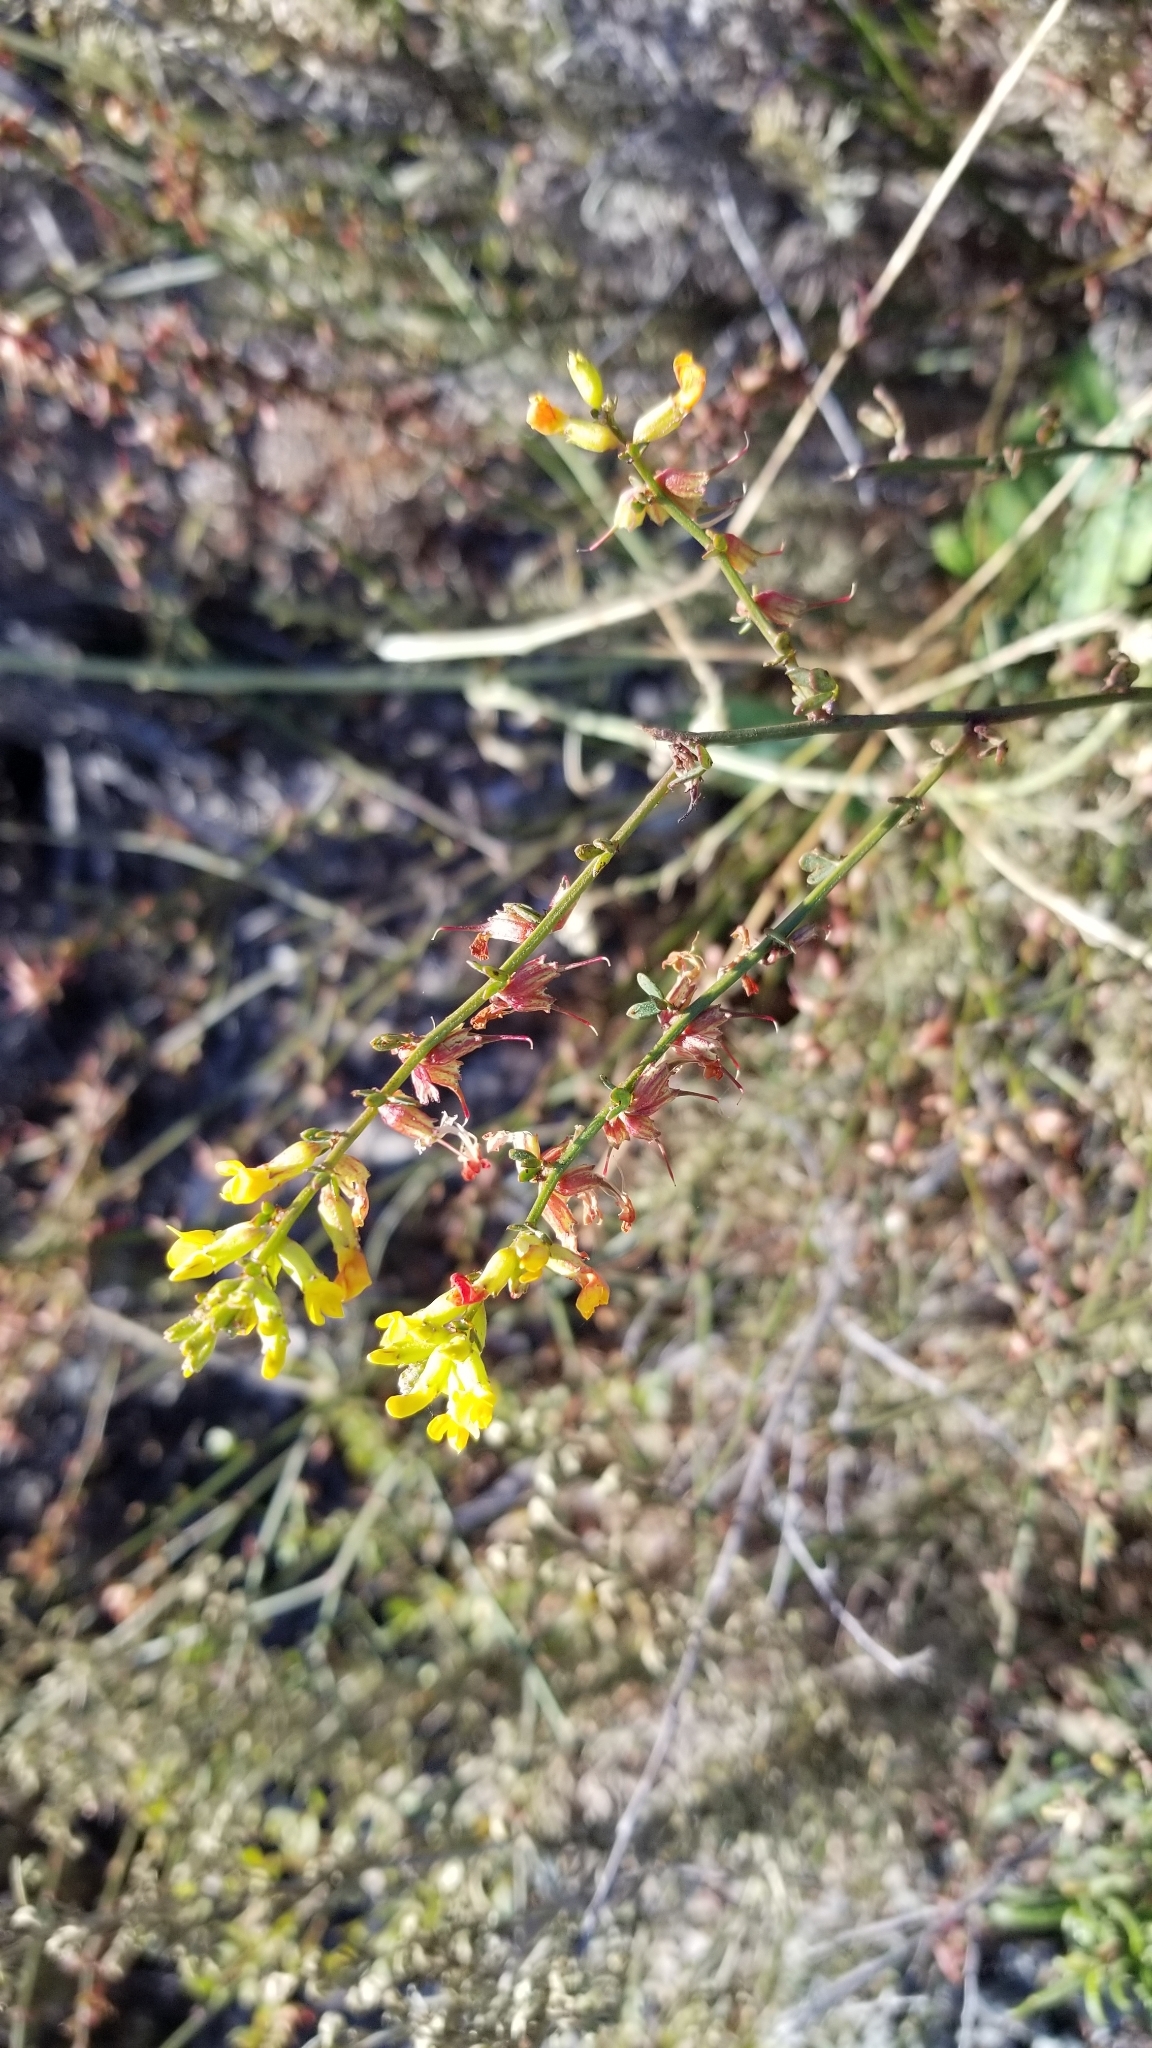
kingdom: Plantae
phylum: Tracheophyta
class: Magnoliopsida
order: Fabales
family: Fabaceae
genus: Acmispon
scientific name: Acmispon glaber
